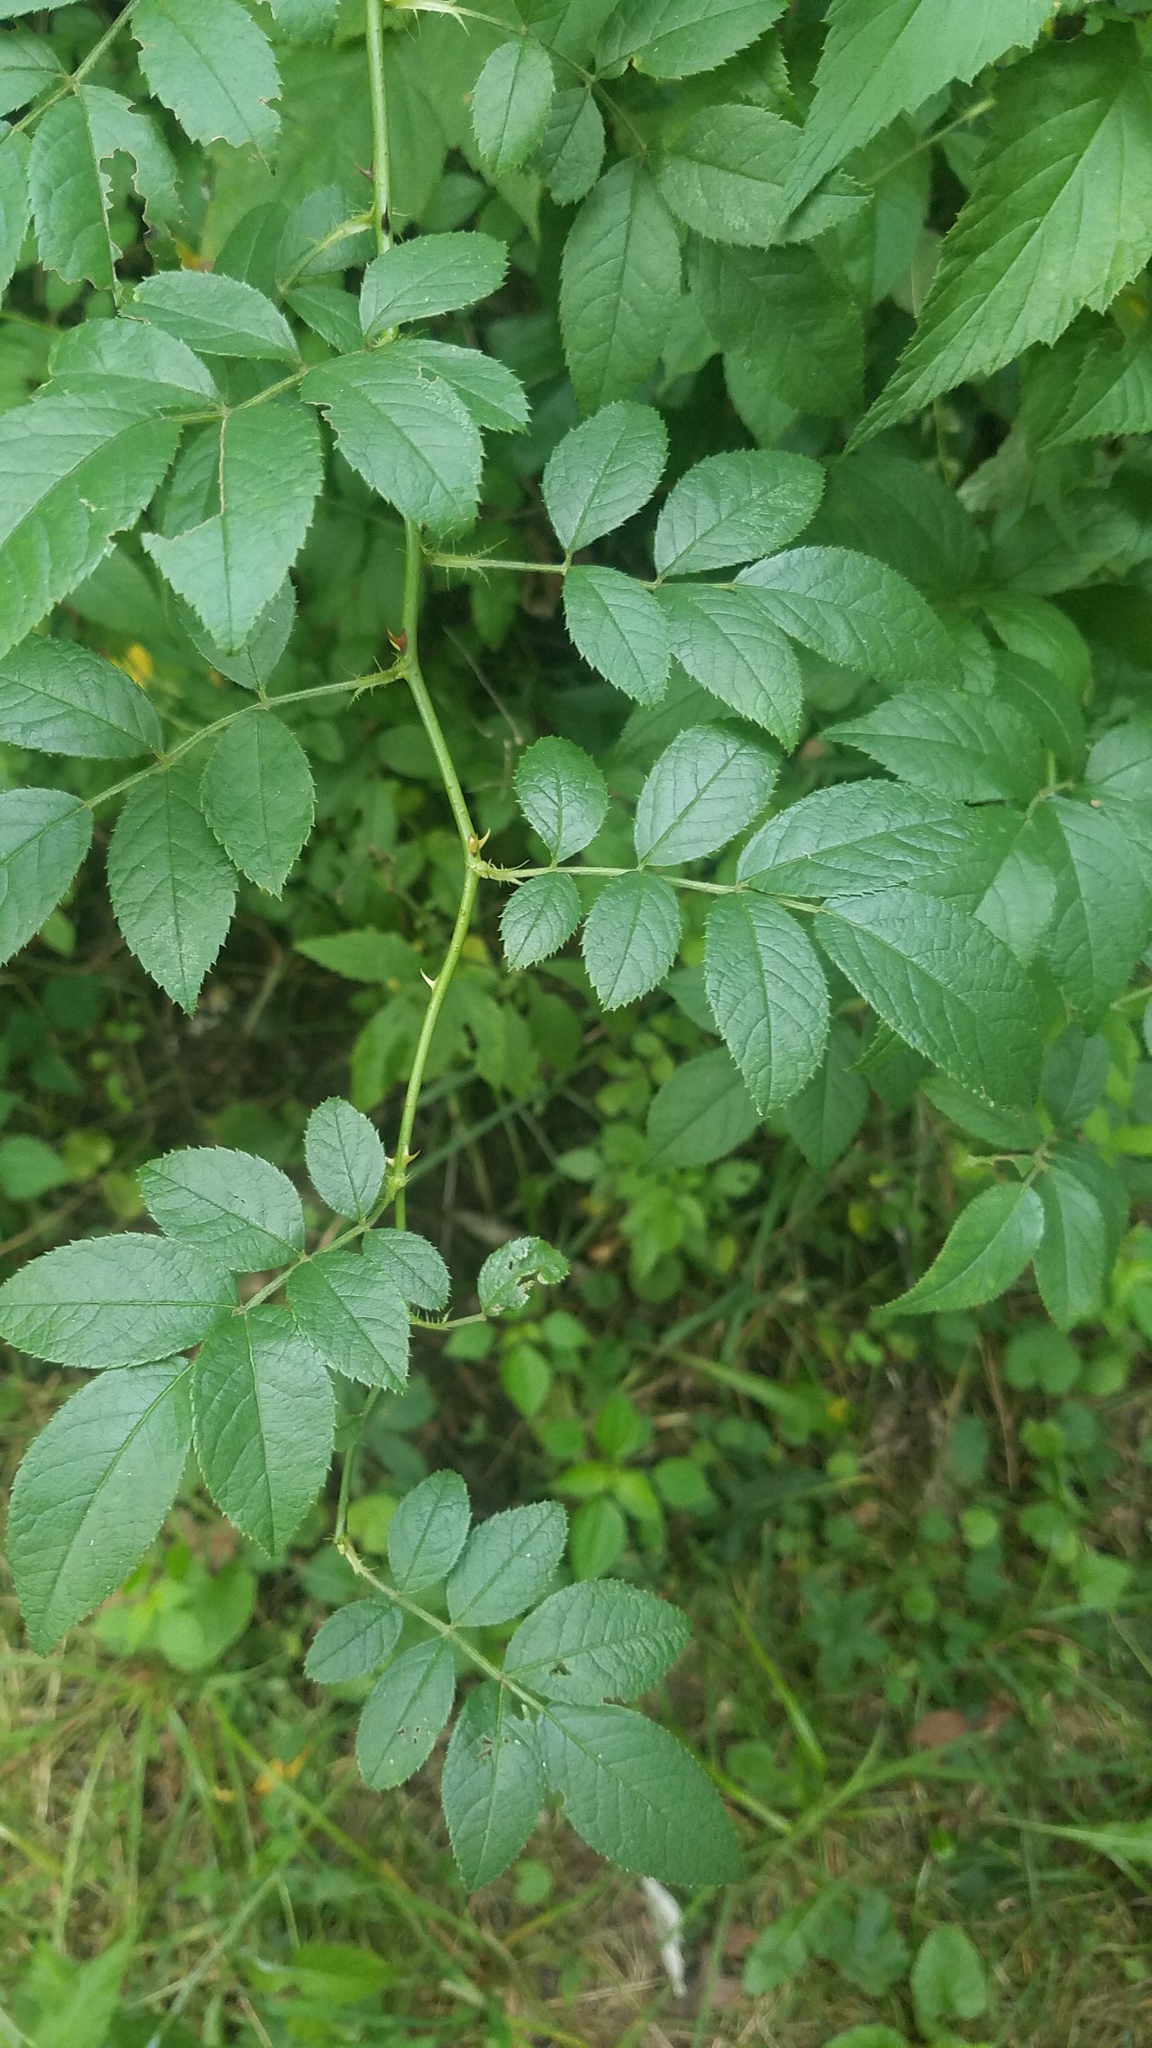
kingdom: Plantae
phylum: Tracheophyta
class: Magnoliopsida
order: Rosales
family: Rosaceae
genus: Rosa
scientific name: Rosa multiflora
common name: Multiflora rose
